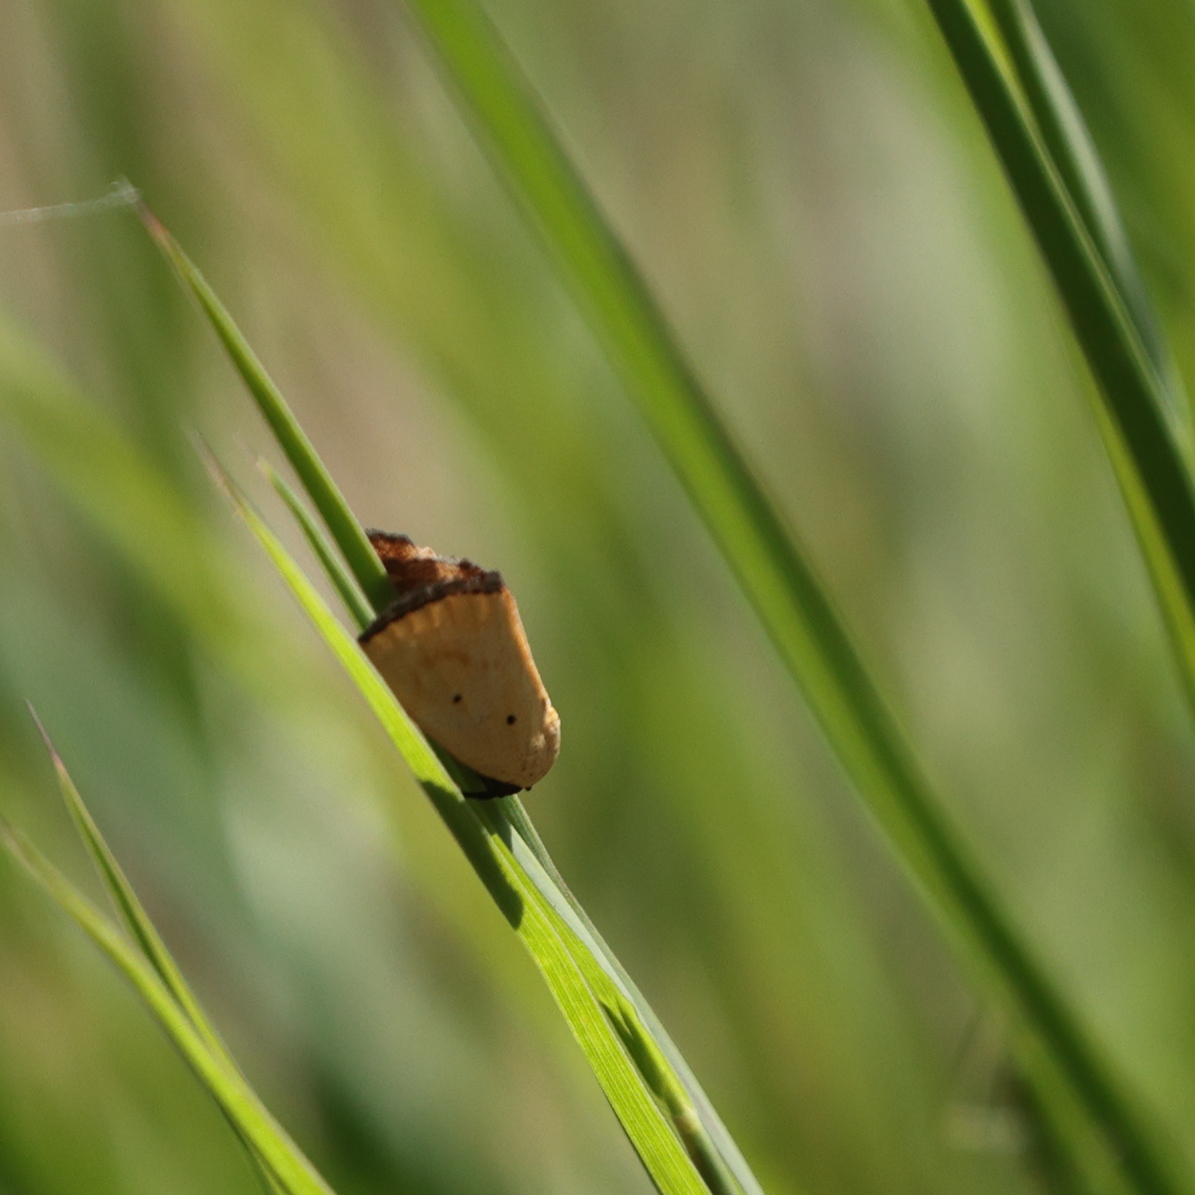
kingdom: Animalia
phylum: Arthropoda
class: Insecta
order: Lepidoptera
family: Noctuidae
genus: Marimatha
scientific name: Marimatha nigrofimbria
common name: Black-bordered lemon moth
